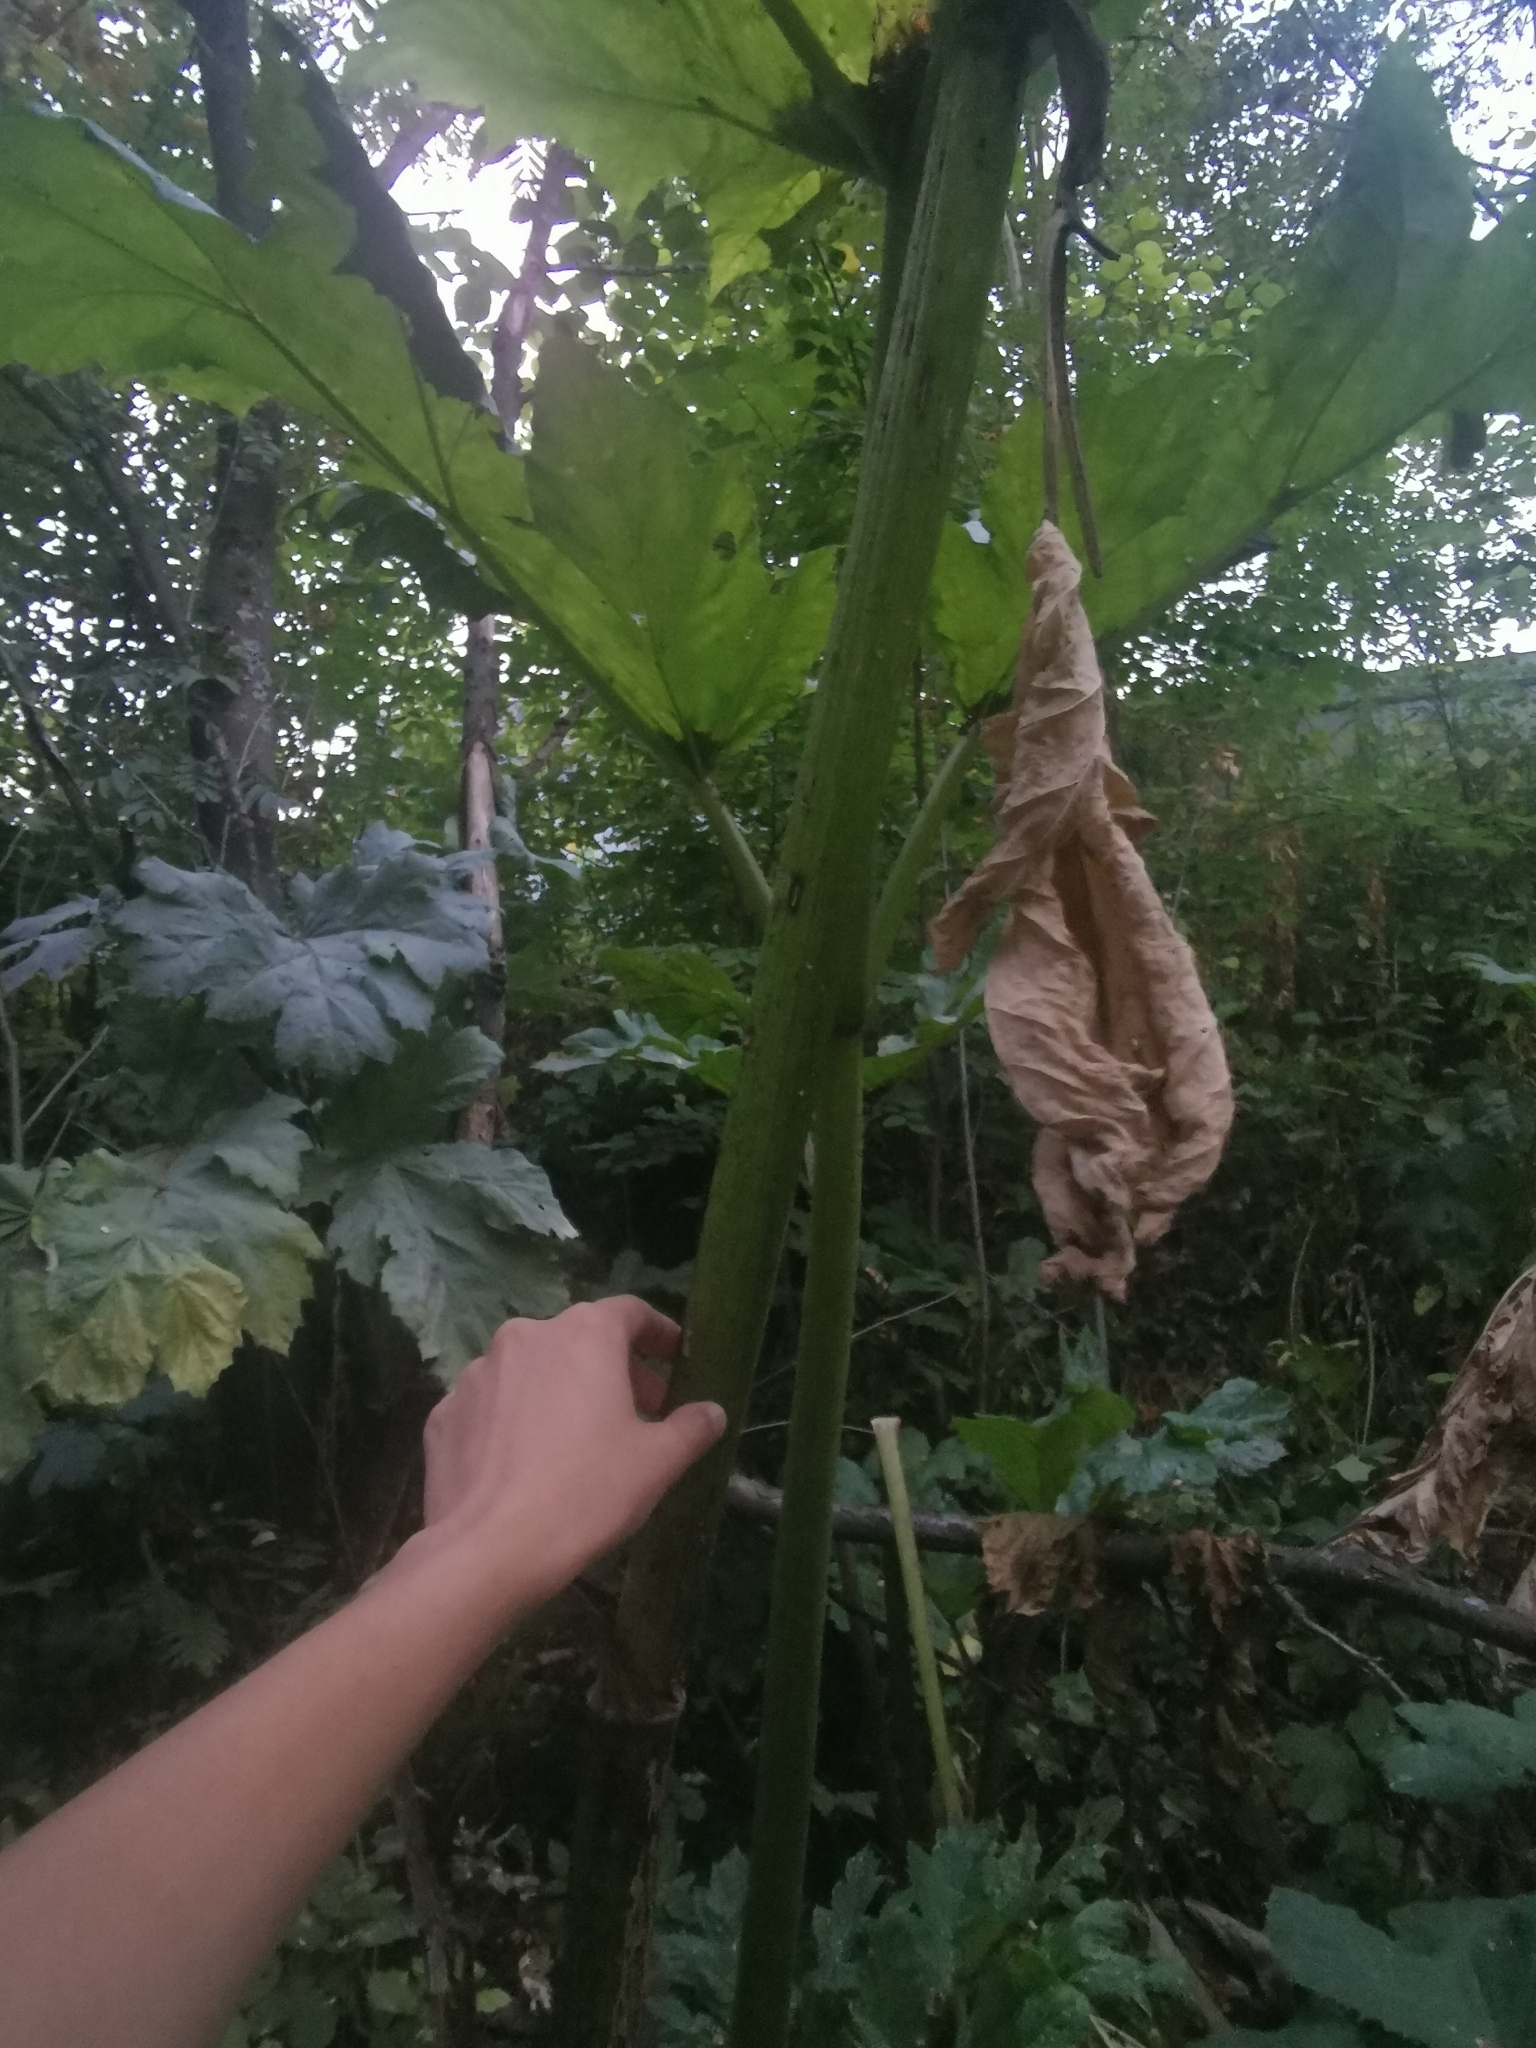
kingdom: Plantae
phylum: Tracheophyta
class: Magnoliopsida
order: Apiales
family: Apiaceae
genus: Heracleum
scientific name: Heracleum sosnowskyi
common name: Sosnowsky's hogweed
